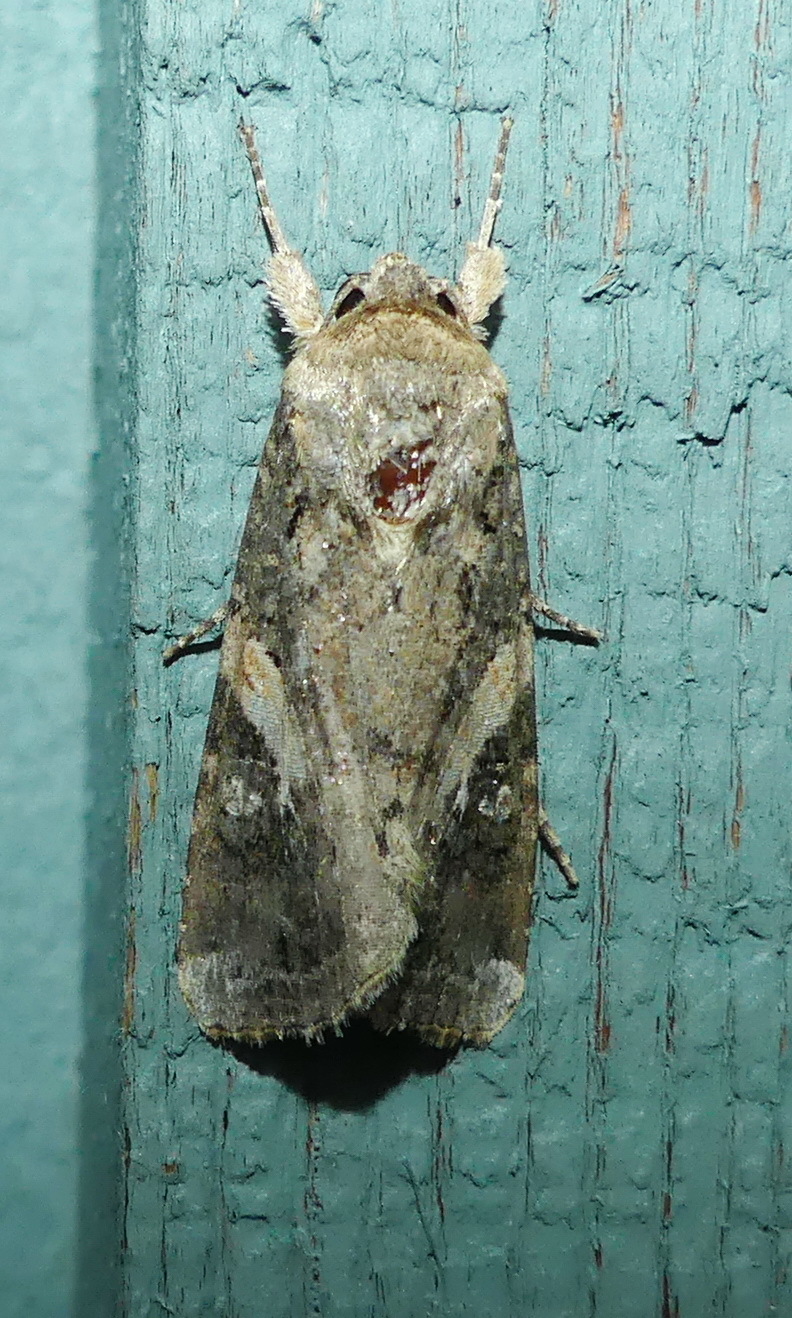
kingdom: Animalia
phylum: Arthropoda
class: Insecta
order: Lepidoptera
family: Noctuidae
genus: Spodoptera
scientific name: Spodoptera frugiperda
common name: Fall armyworm
